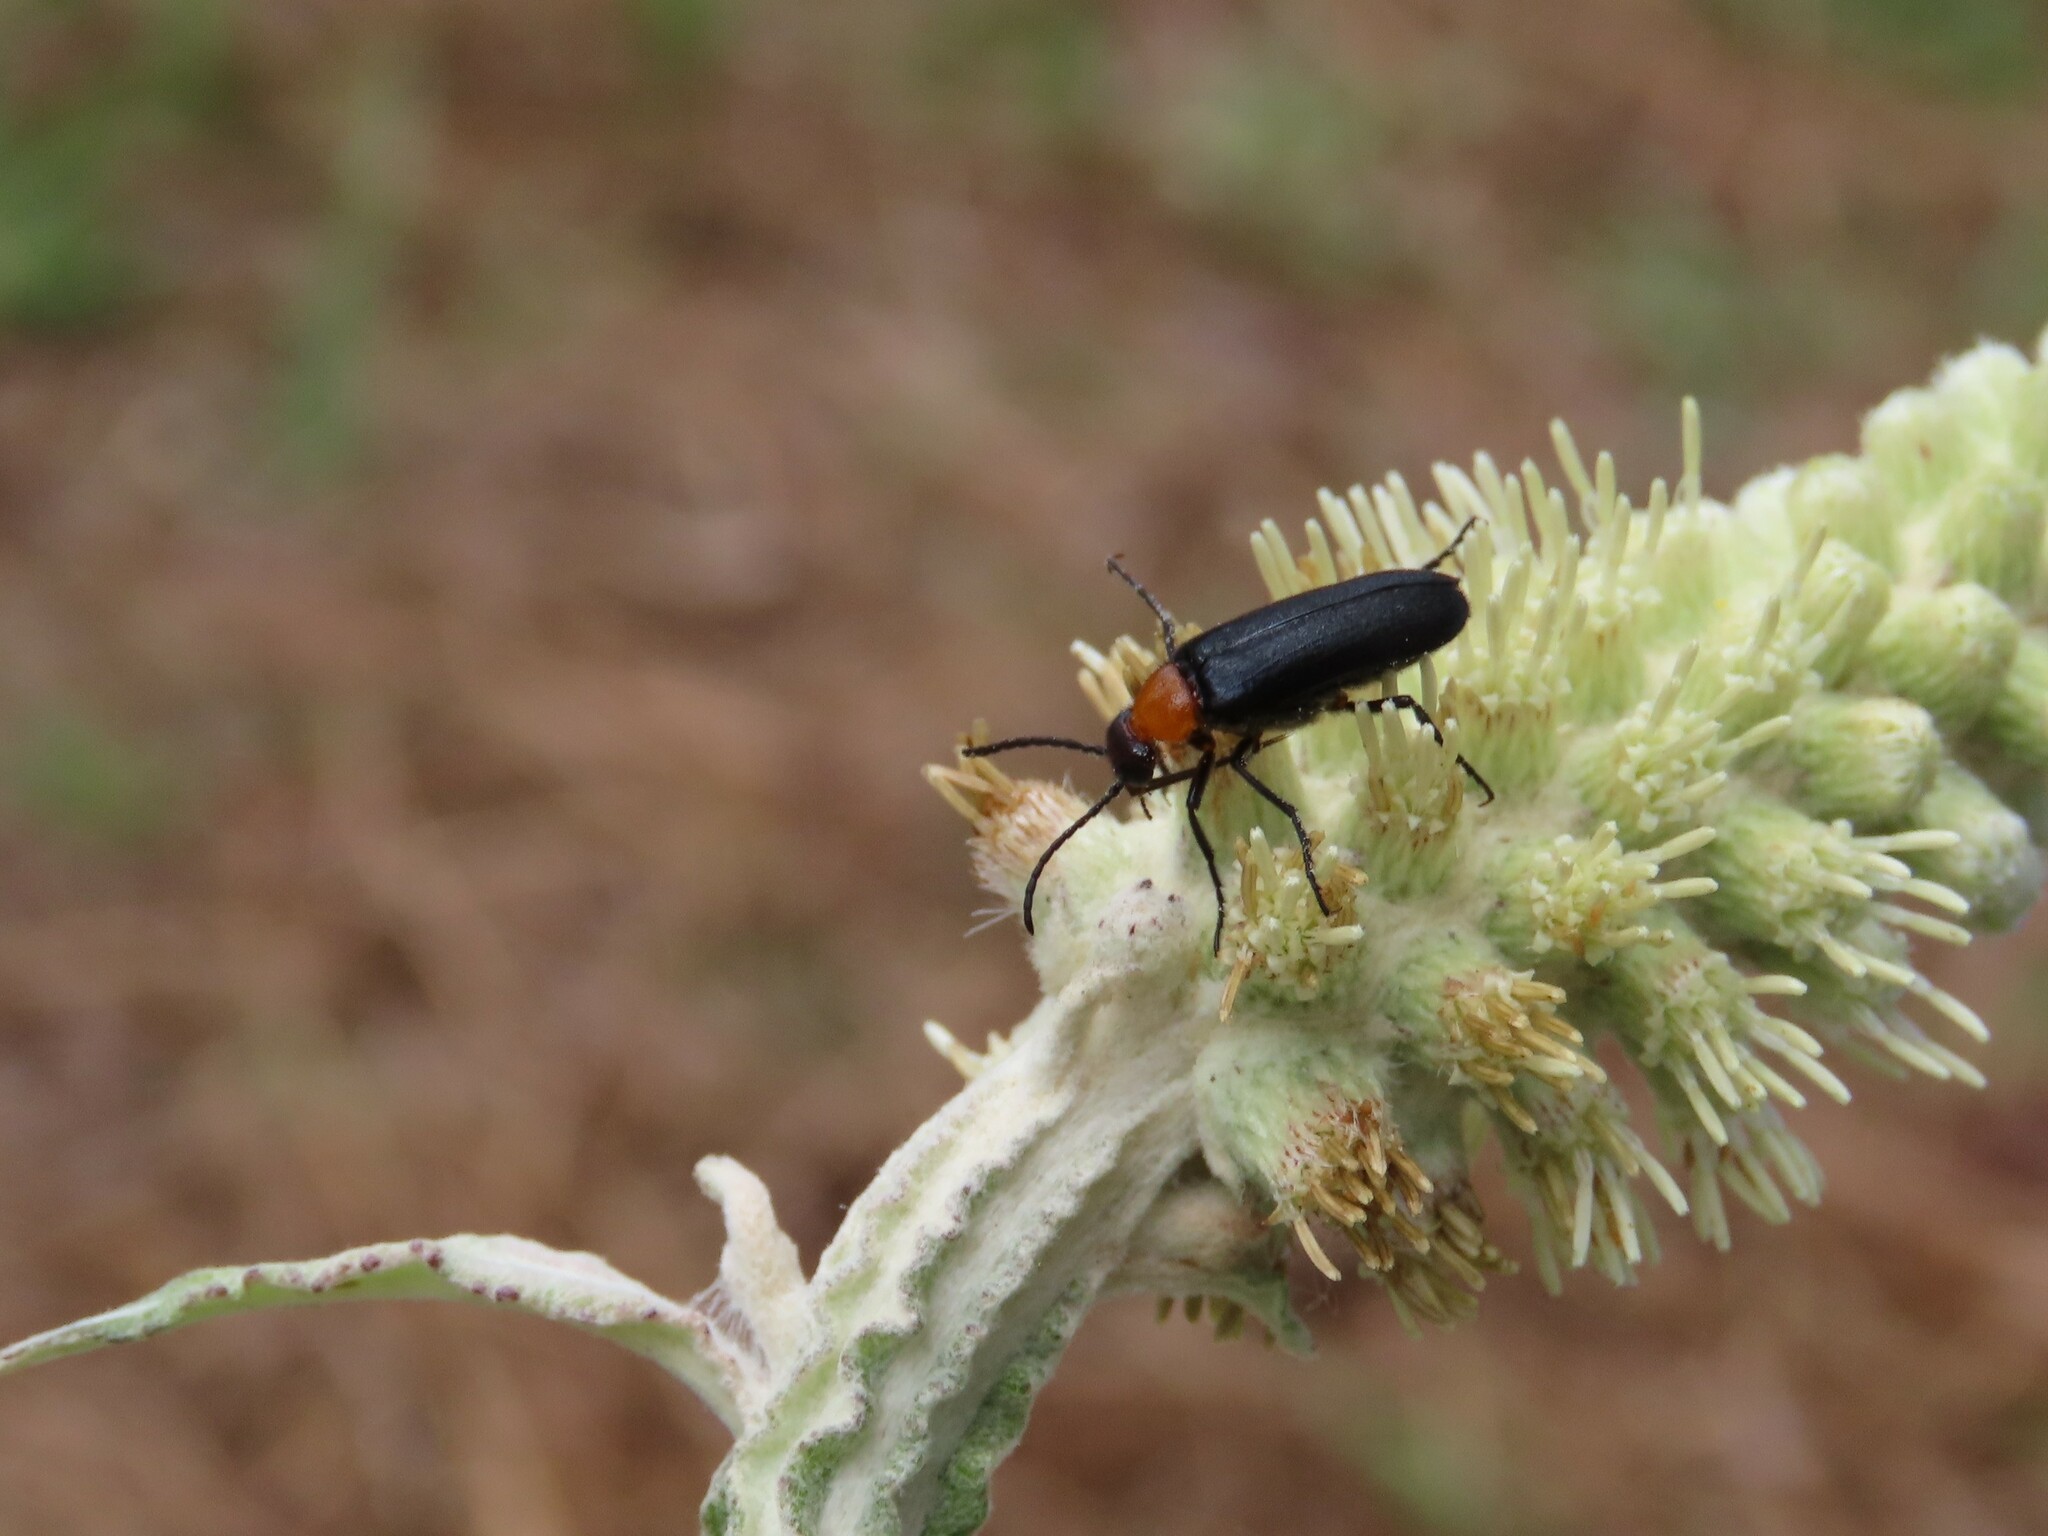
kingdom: Animalia
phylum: Arthropoda
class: Insecta
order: Coleoptera
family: Meloidae
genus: Nemognatha
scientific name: Nemognatha nemorensis
